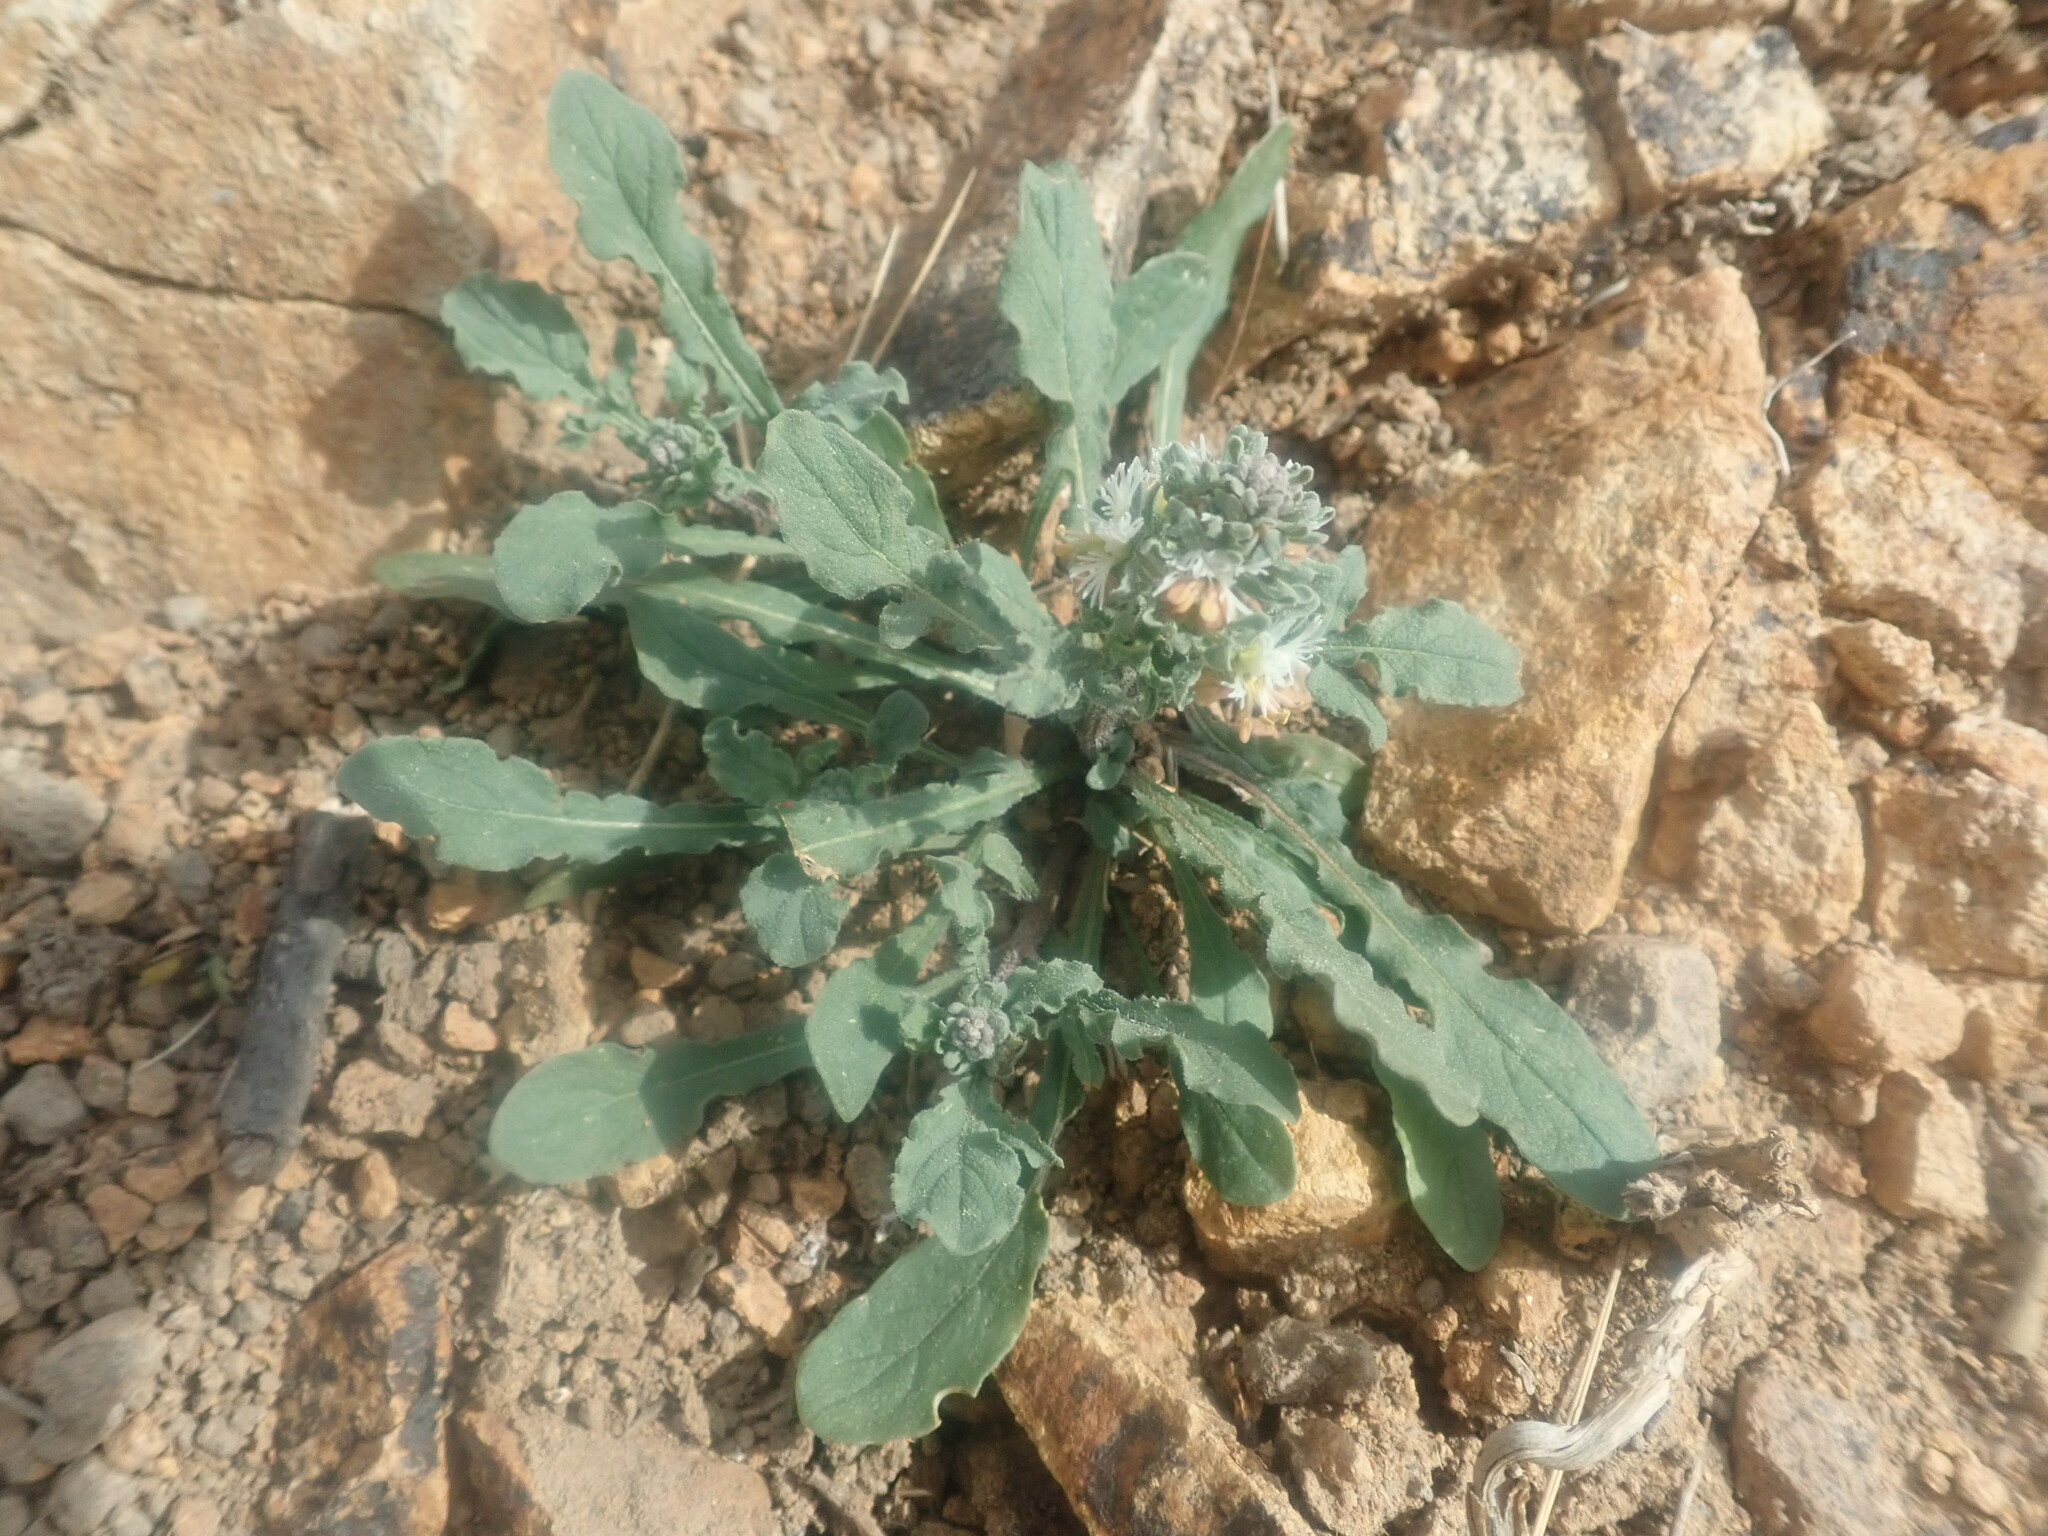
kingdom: Plantae
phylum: Tracheophyta
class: Magnoliopsida
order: Brassicales
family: Resedaceae
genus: Reseda
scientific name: Reseda phyteuma
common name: Corn mignonette
